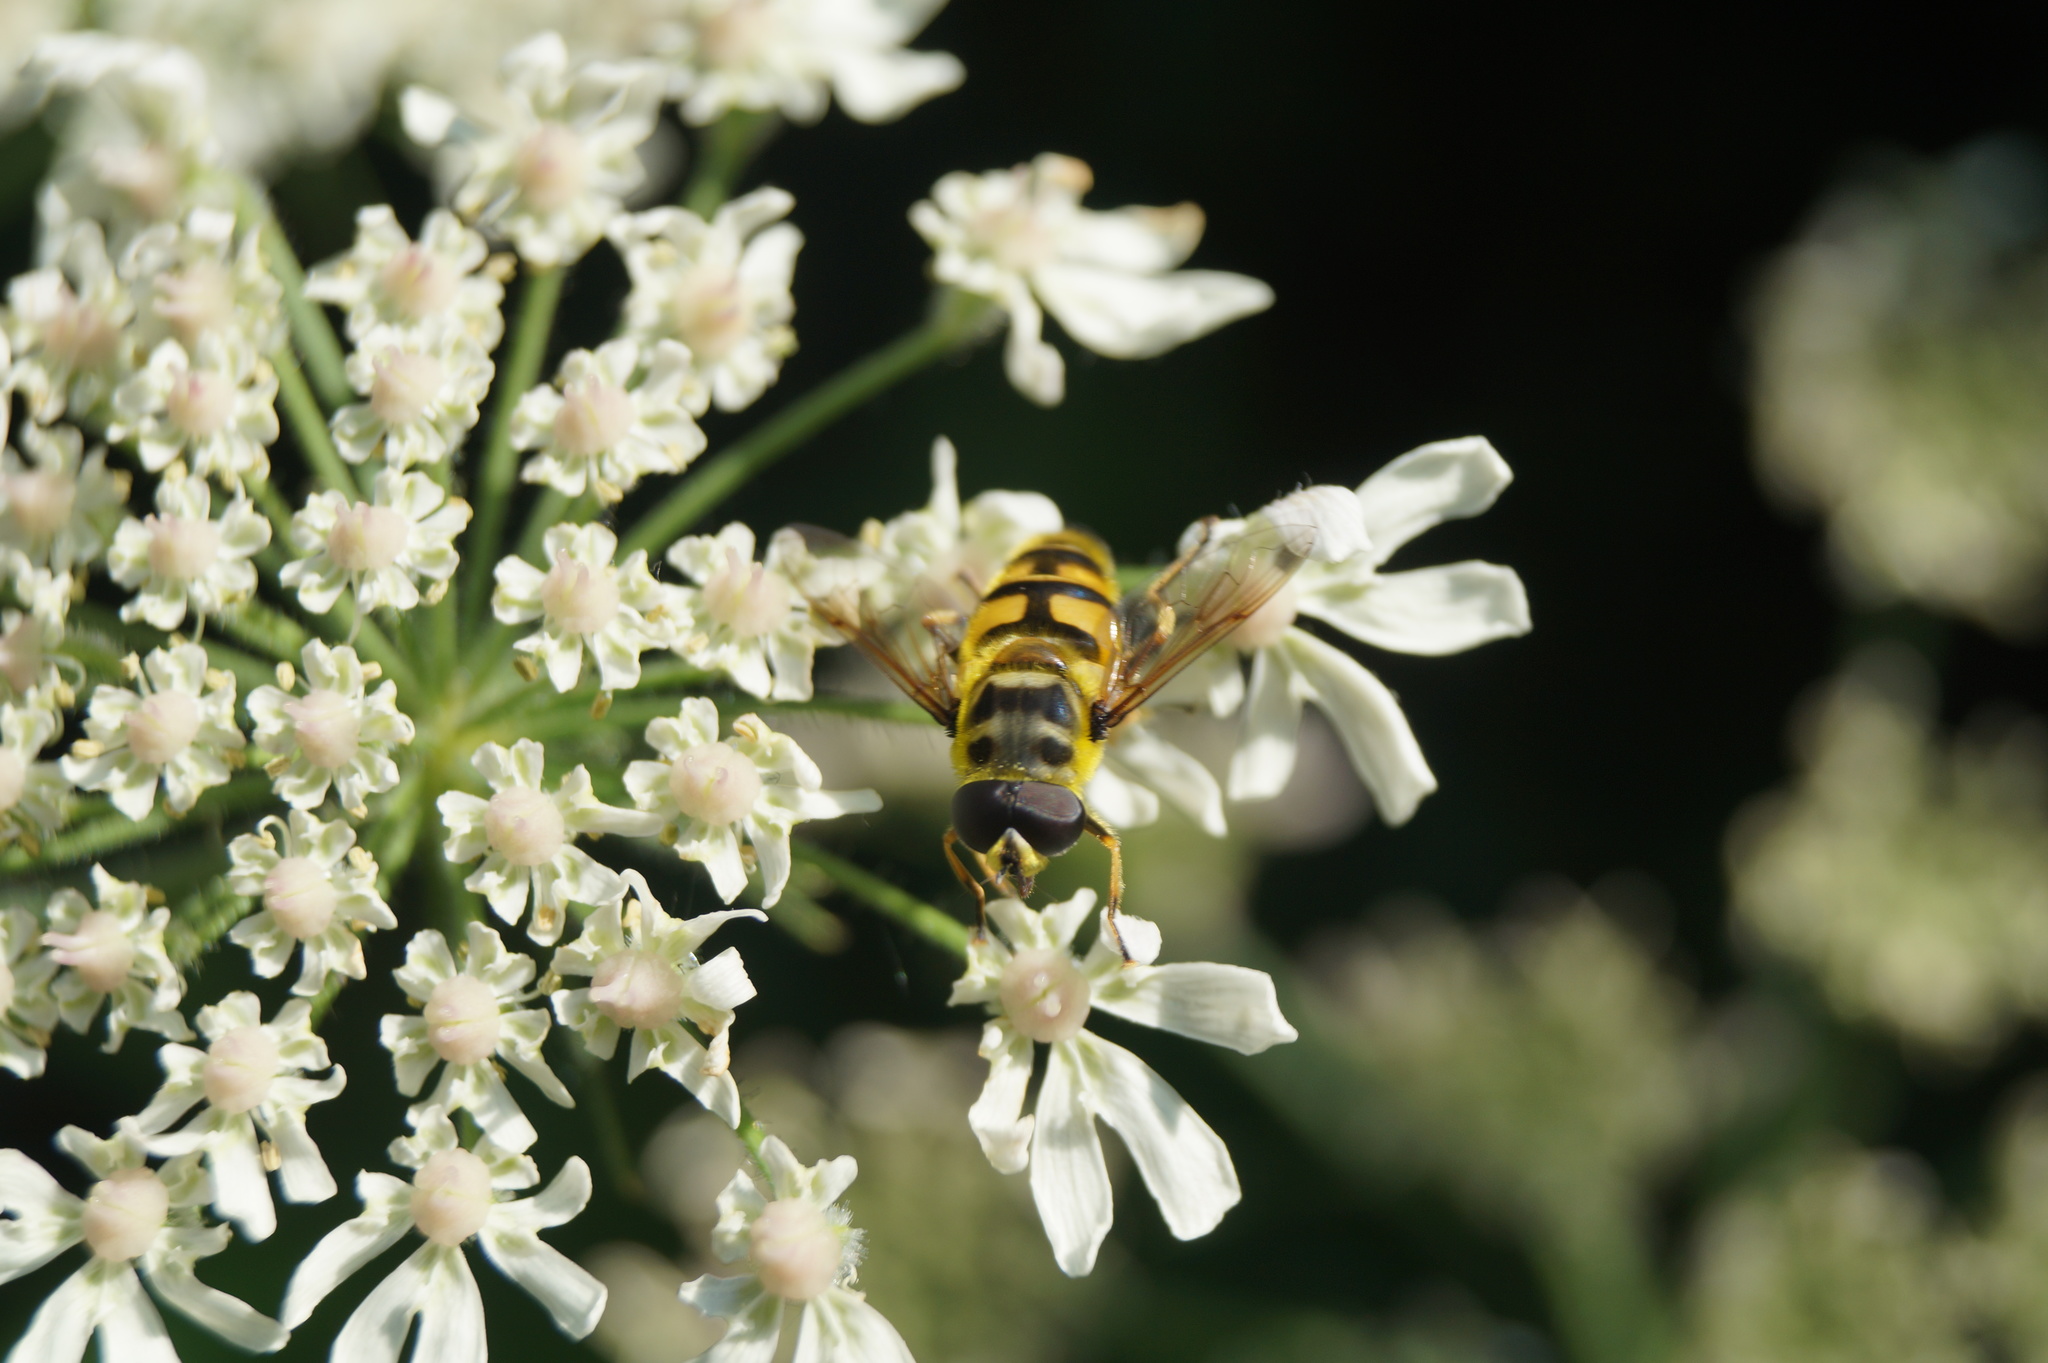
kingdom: Animalia
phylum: Arthropoda
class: Insecta
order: Diptera
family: Syrphidae
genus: Myathropa
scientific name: Myathropa florea
